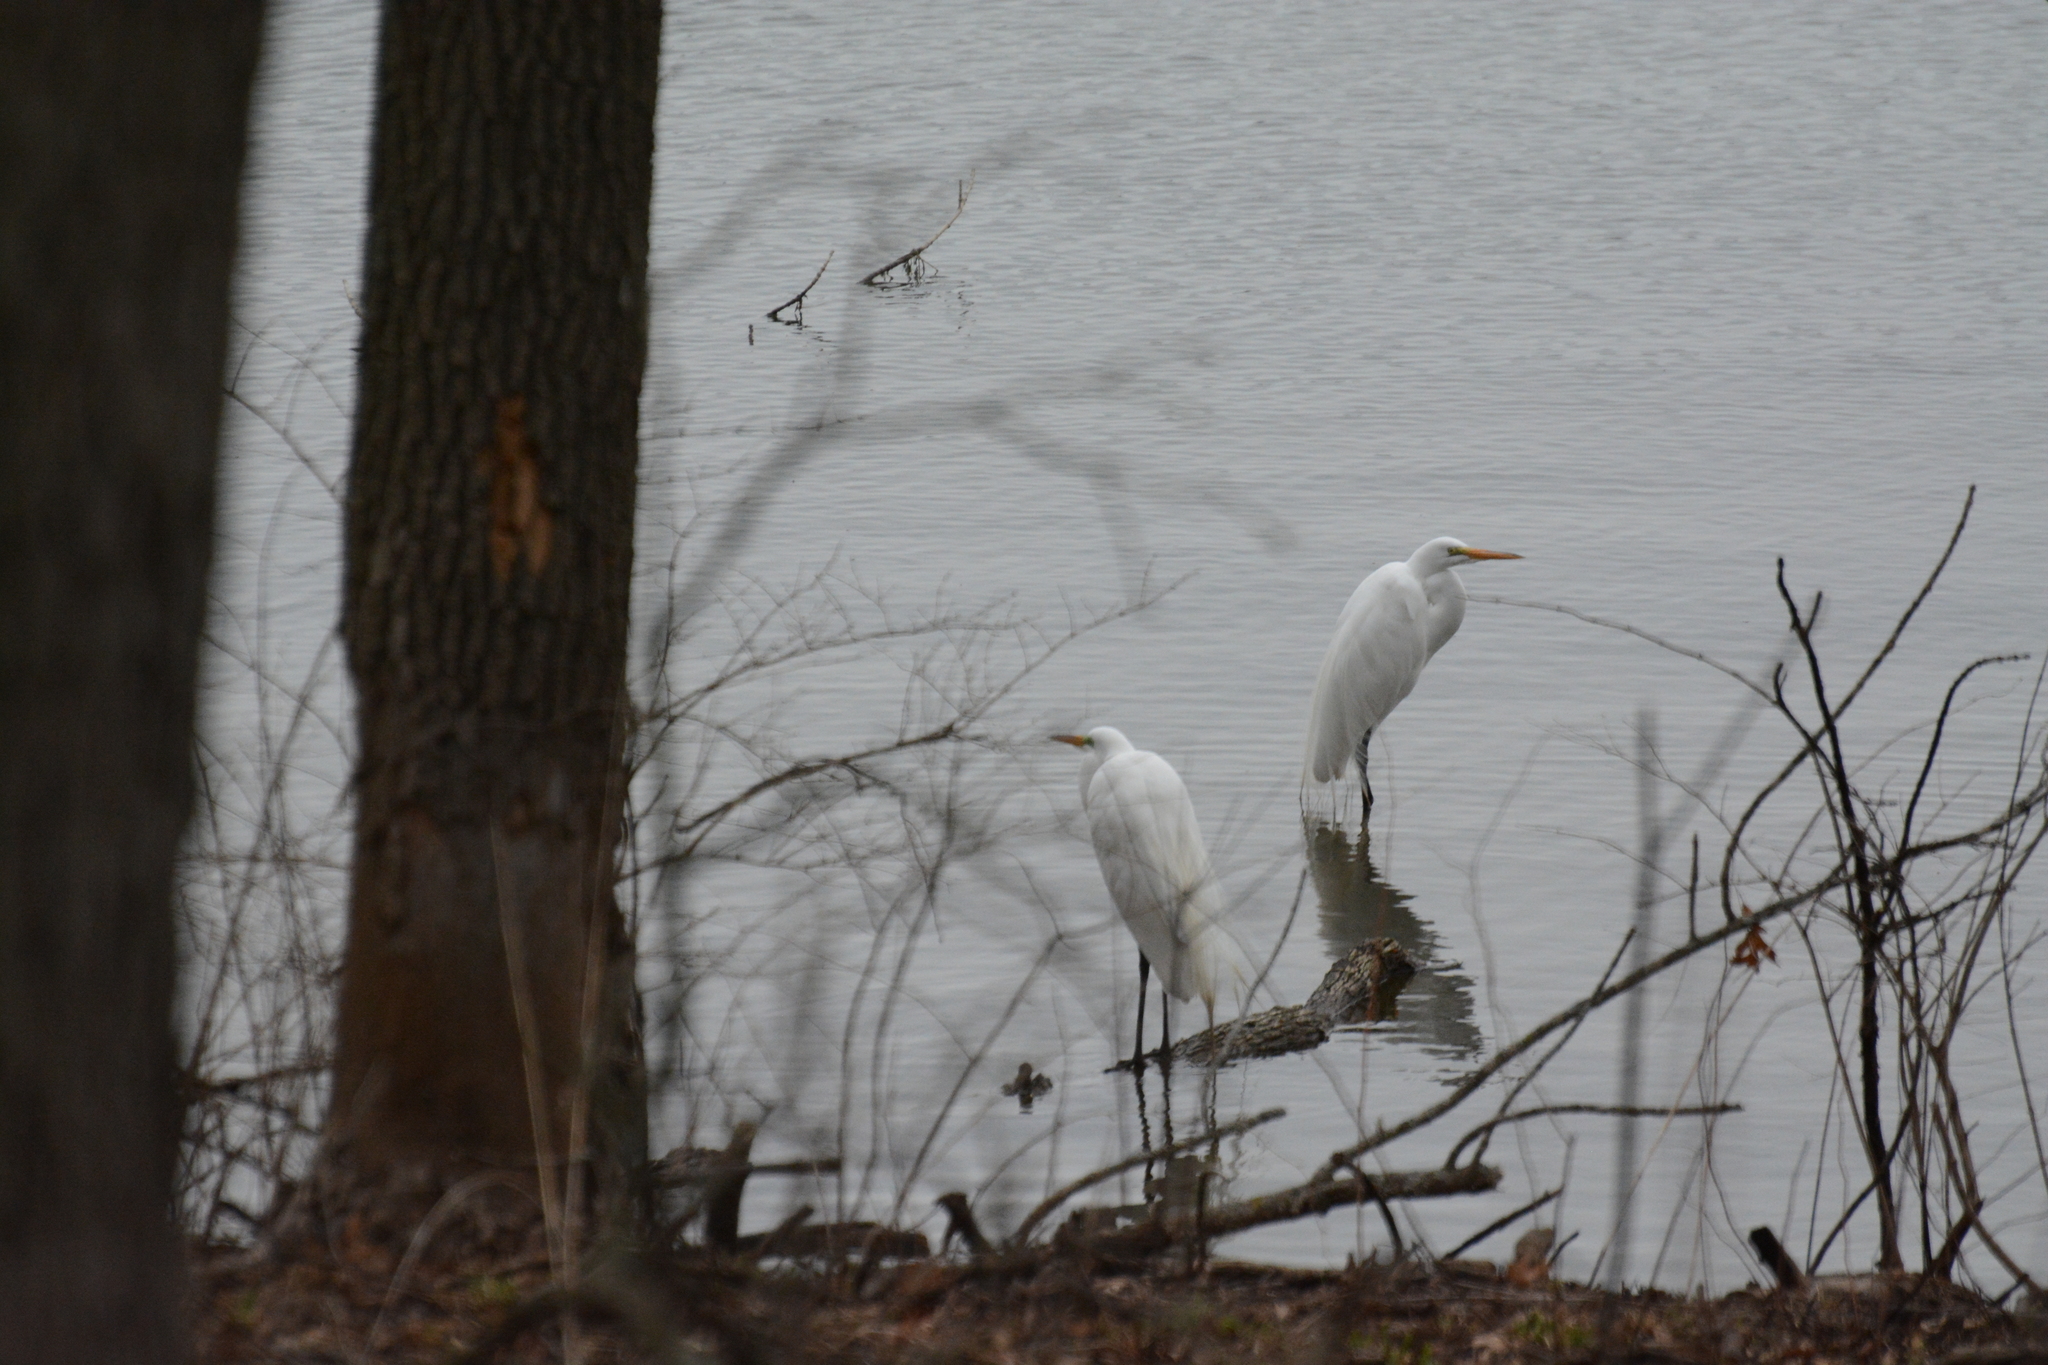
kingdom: Animalia
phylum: Chordata
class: Aves
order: Pelecaniformes
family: Ardeidae
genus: Ardea
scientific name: Ardea alba
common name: Great egret
